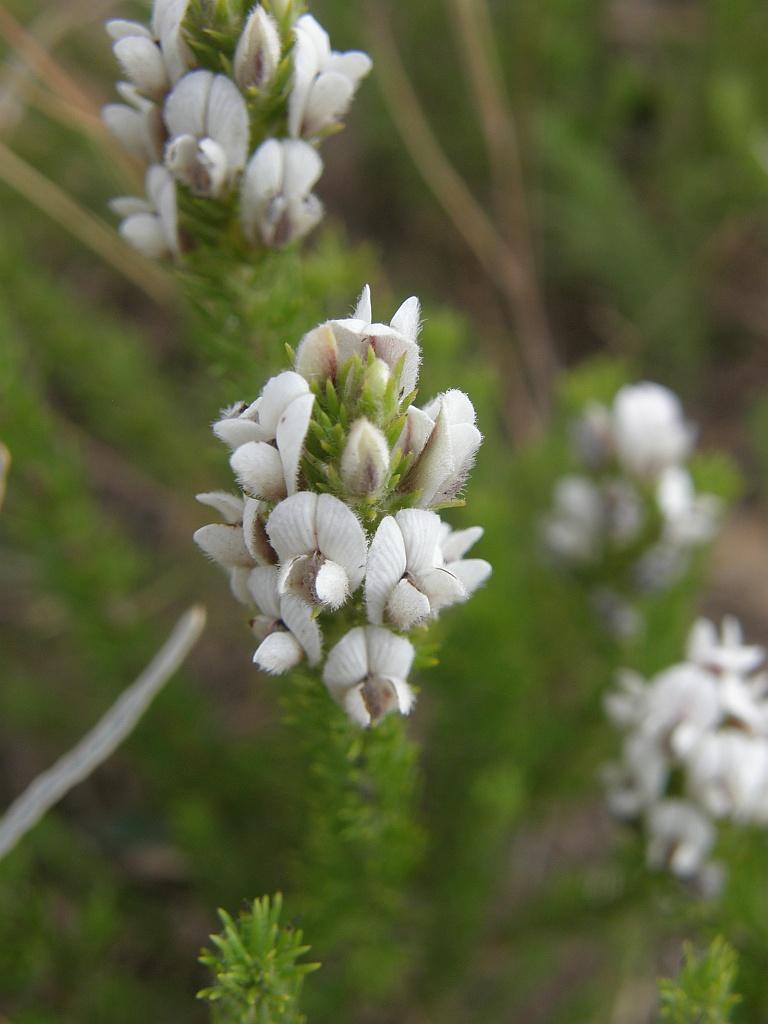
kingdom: Plantae
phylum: Tracheophyta
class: Magnoliopsida
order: Fabales
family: Fabaceae
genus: Aspalathus
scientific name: Aspalathus nigra
